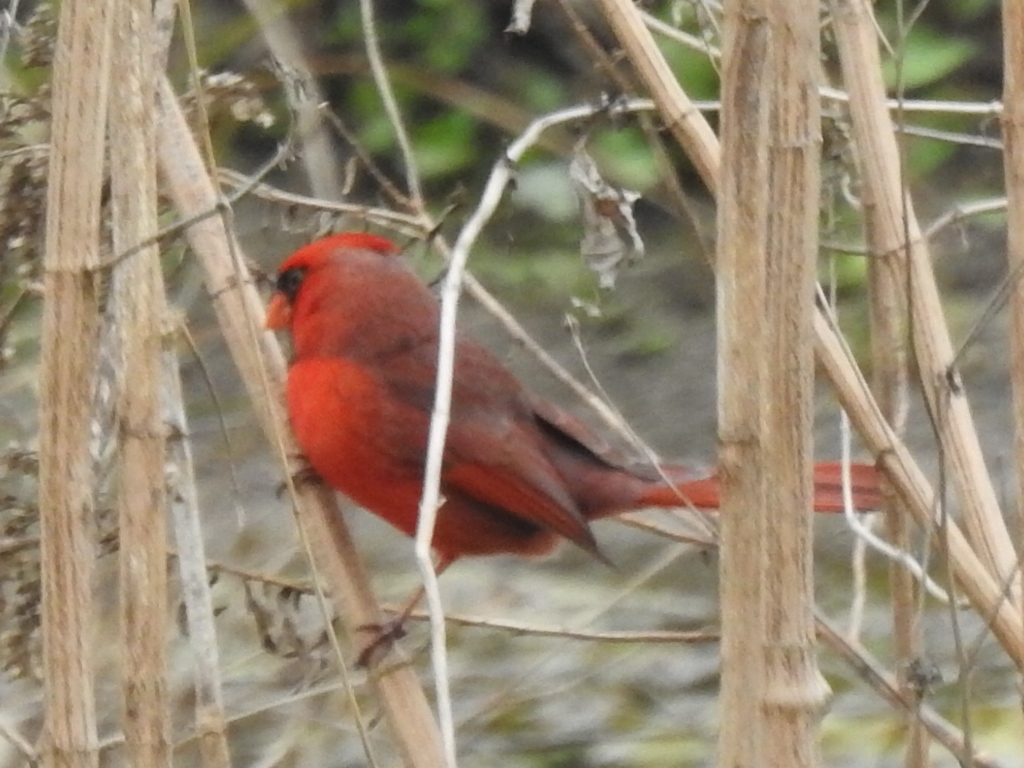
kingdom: Animalia
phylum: Chordata
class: Aves
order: Passeriformes
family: Cardinalidae
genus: Cardinalis
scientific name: Cardinalis cardinalis
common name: Northern cardinal
